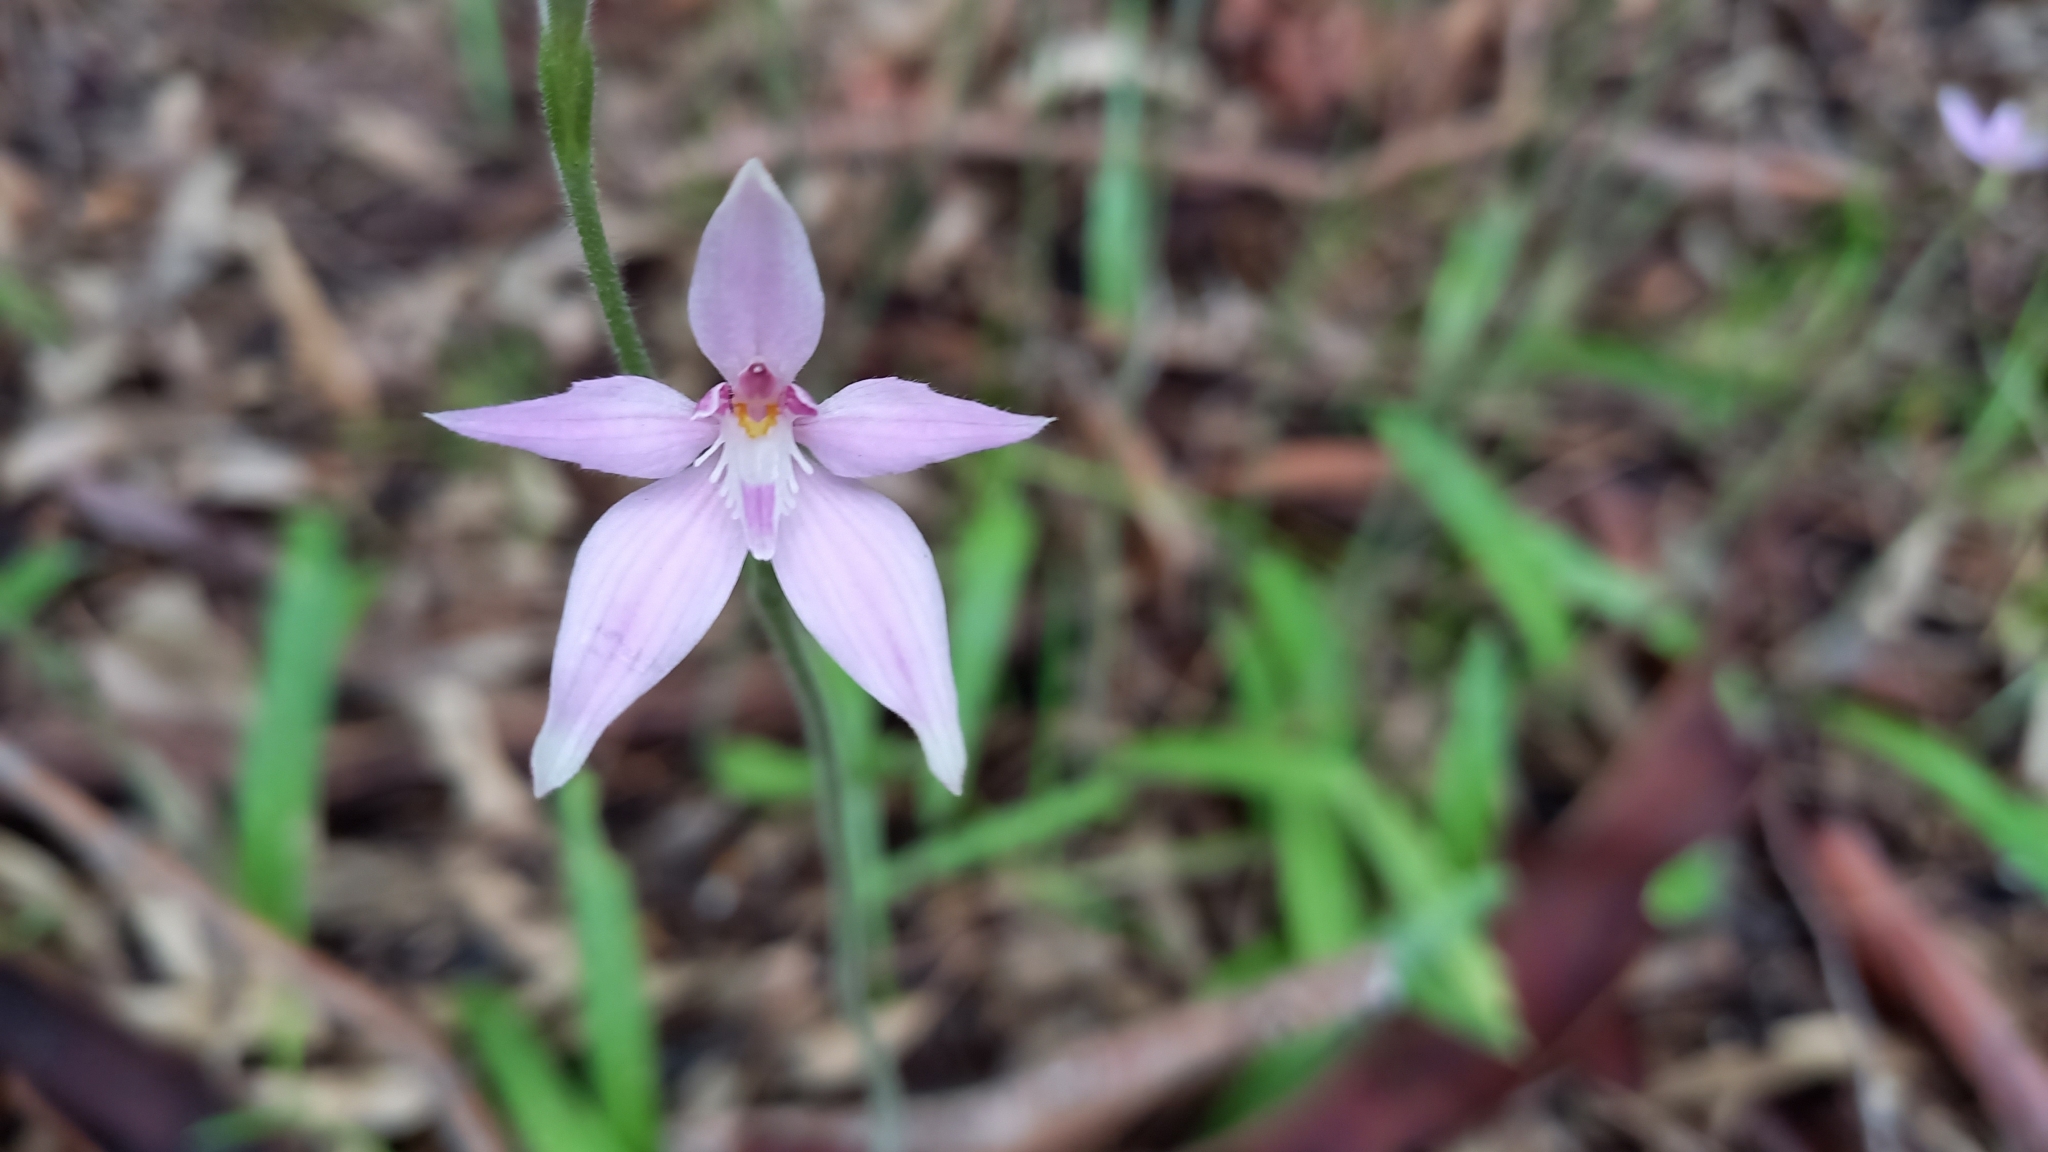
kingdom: Plantae
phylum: Tracheophyta
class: Liliopsida
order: Asparagales
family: Orchidaceae
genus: Caladenia
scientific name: Caladenia latifolia
